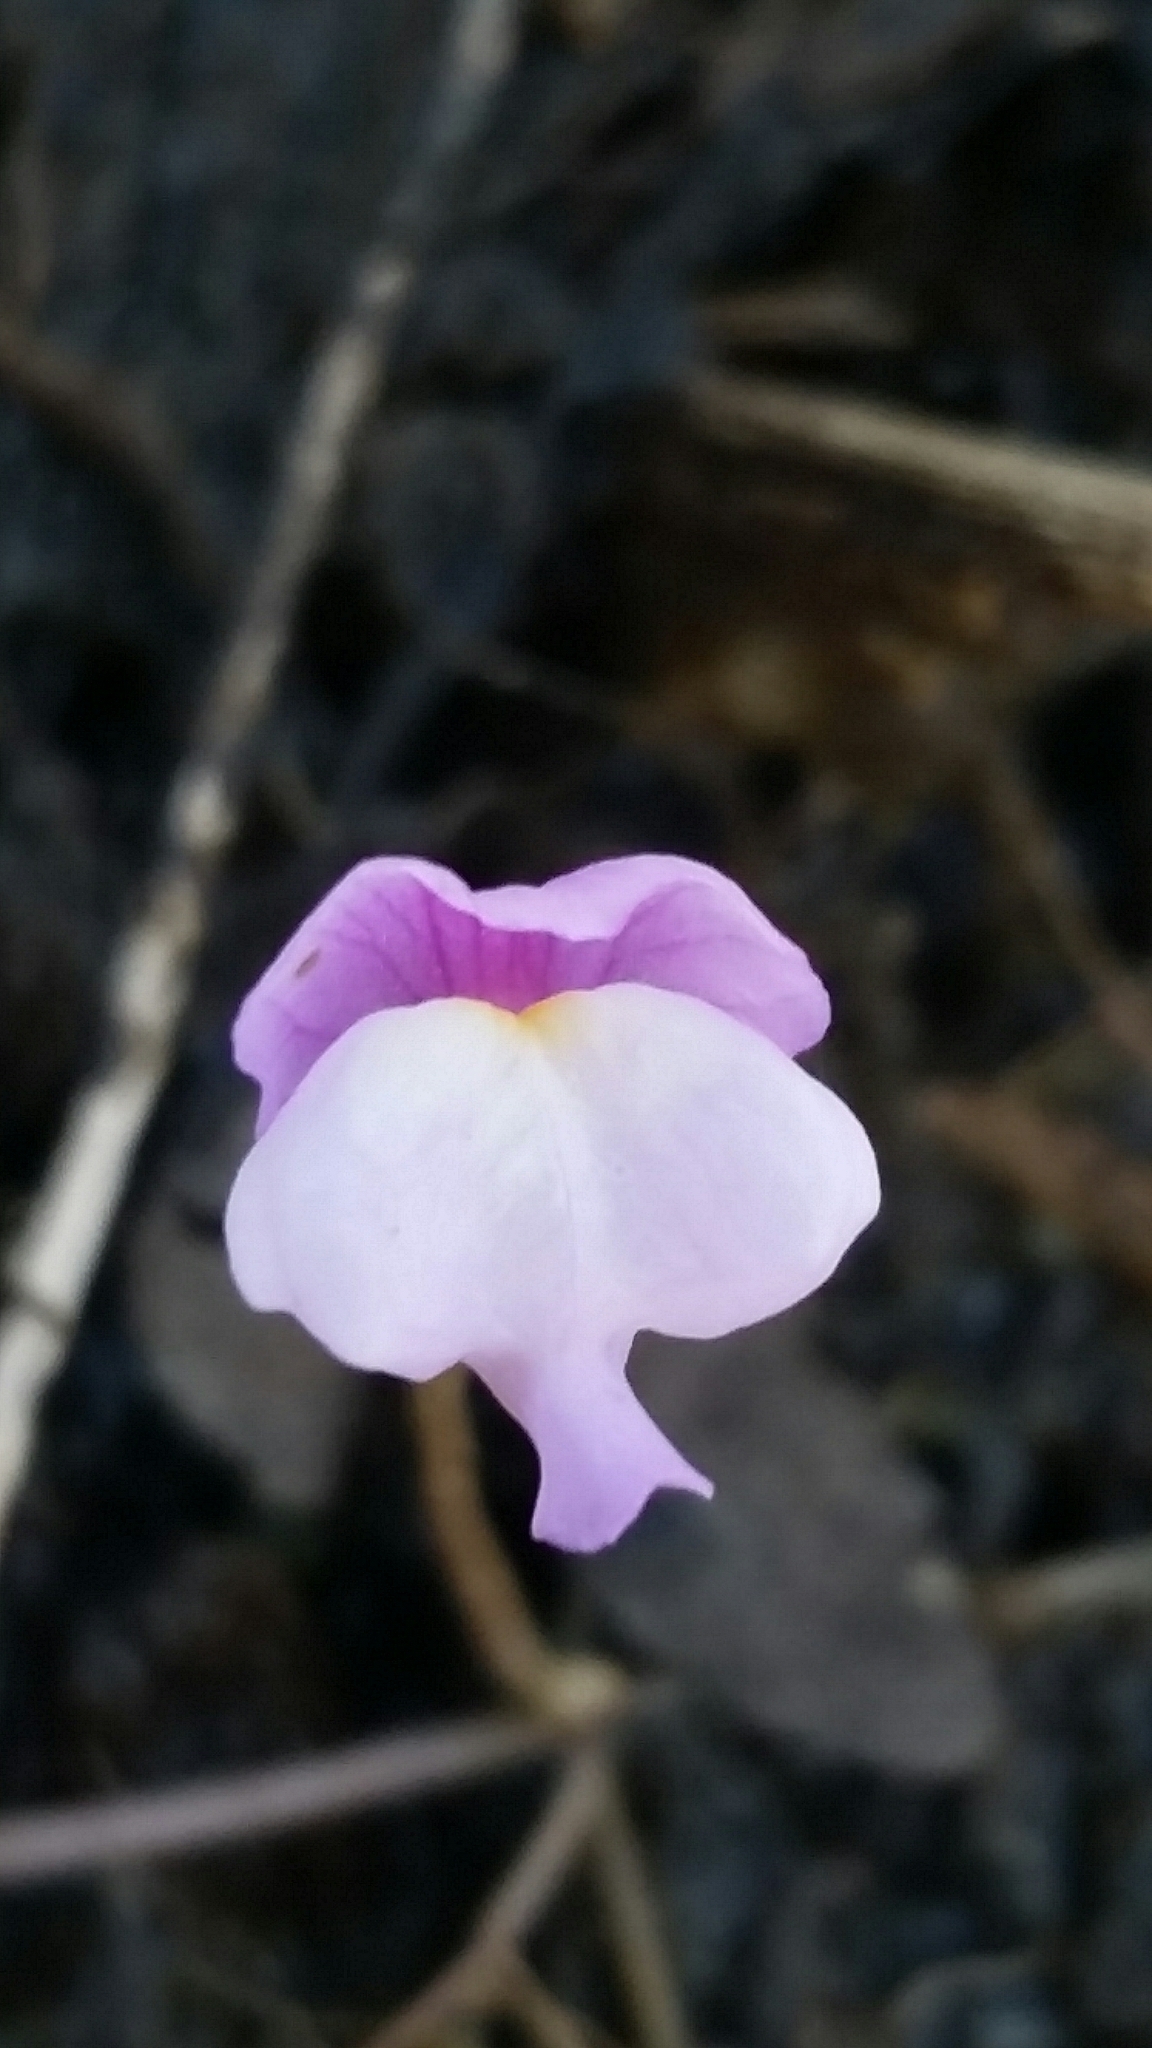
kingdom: Plantae
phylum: Tracheophyta
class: Magnoliopsida
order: Lamiales
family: Lentibulariaceae
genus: Utricularia
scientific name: Utricularia purpurea
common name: Eastern purple bladderwort
